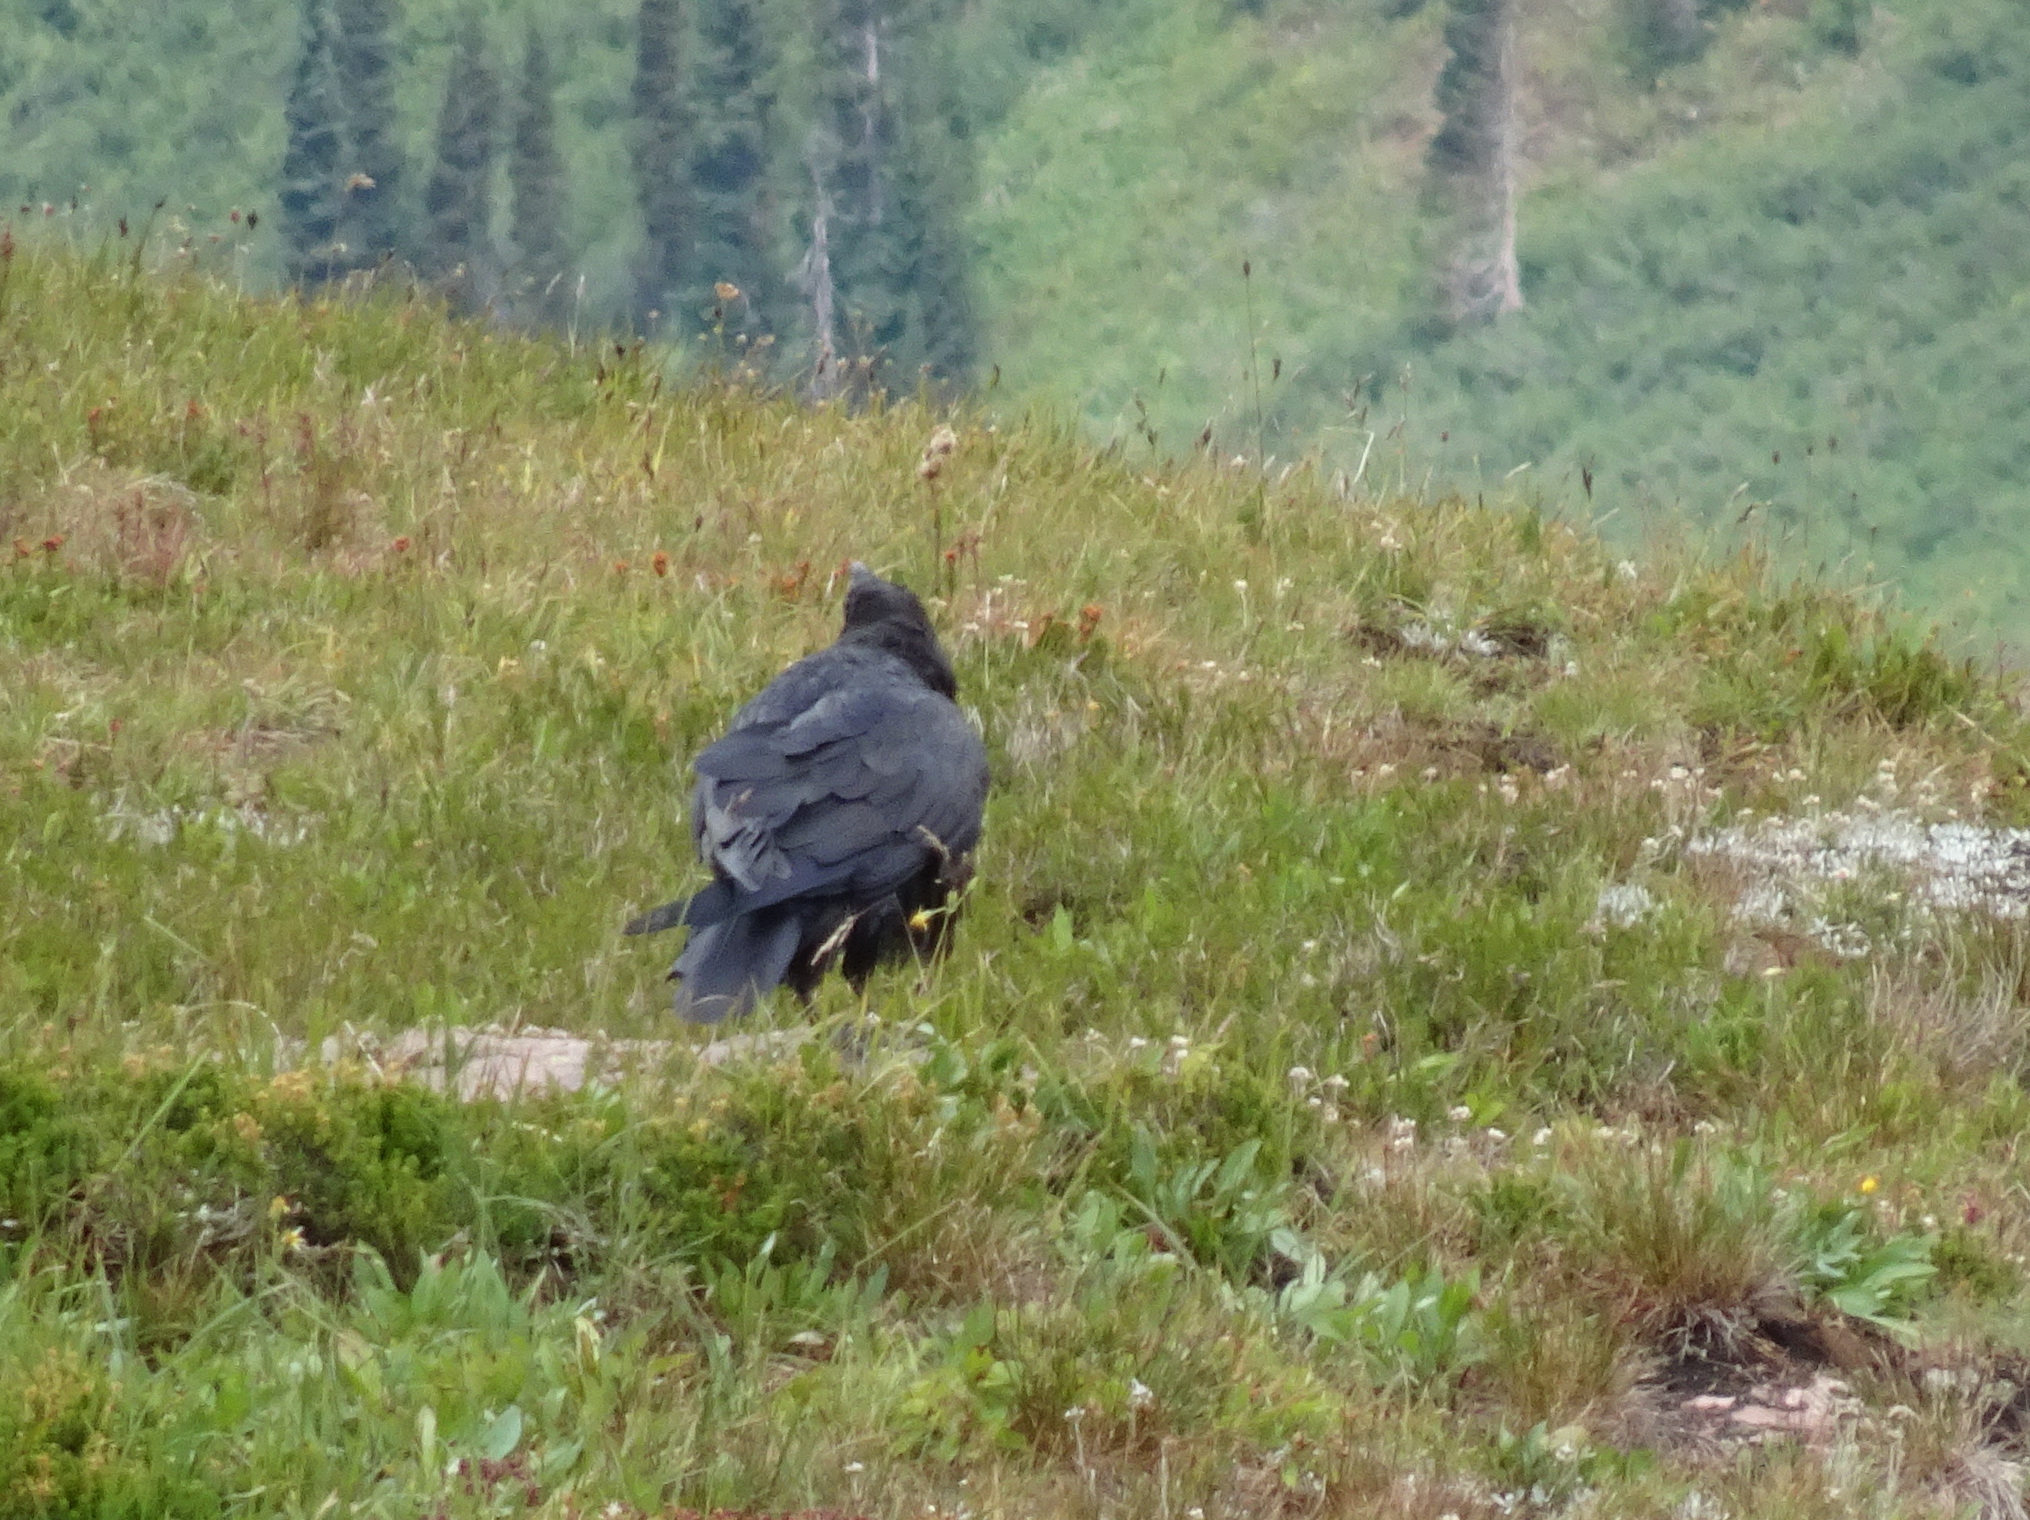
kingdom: Animalia
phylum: Chordata
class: Aves
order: Passeriformes
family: Corvidae
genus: Corvus
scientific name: Corvus corax
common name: Common raven
